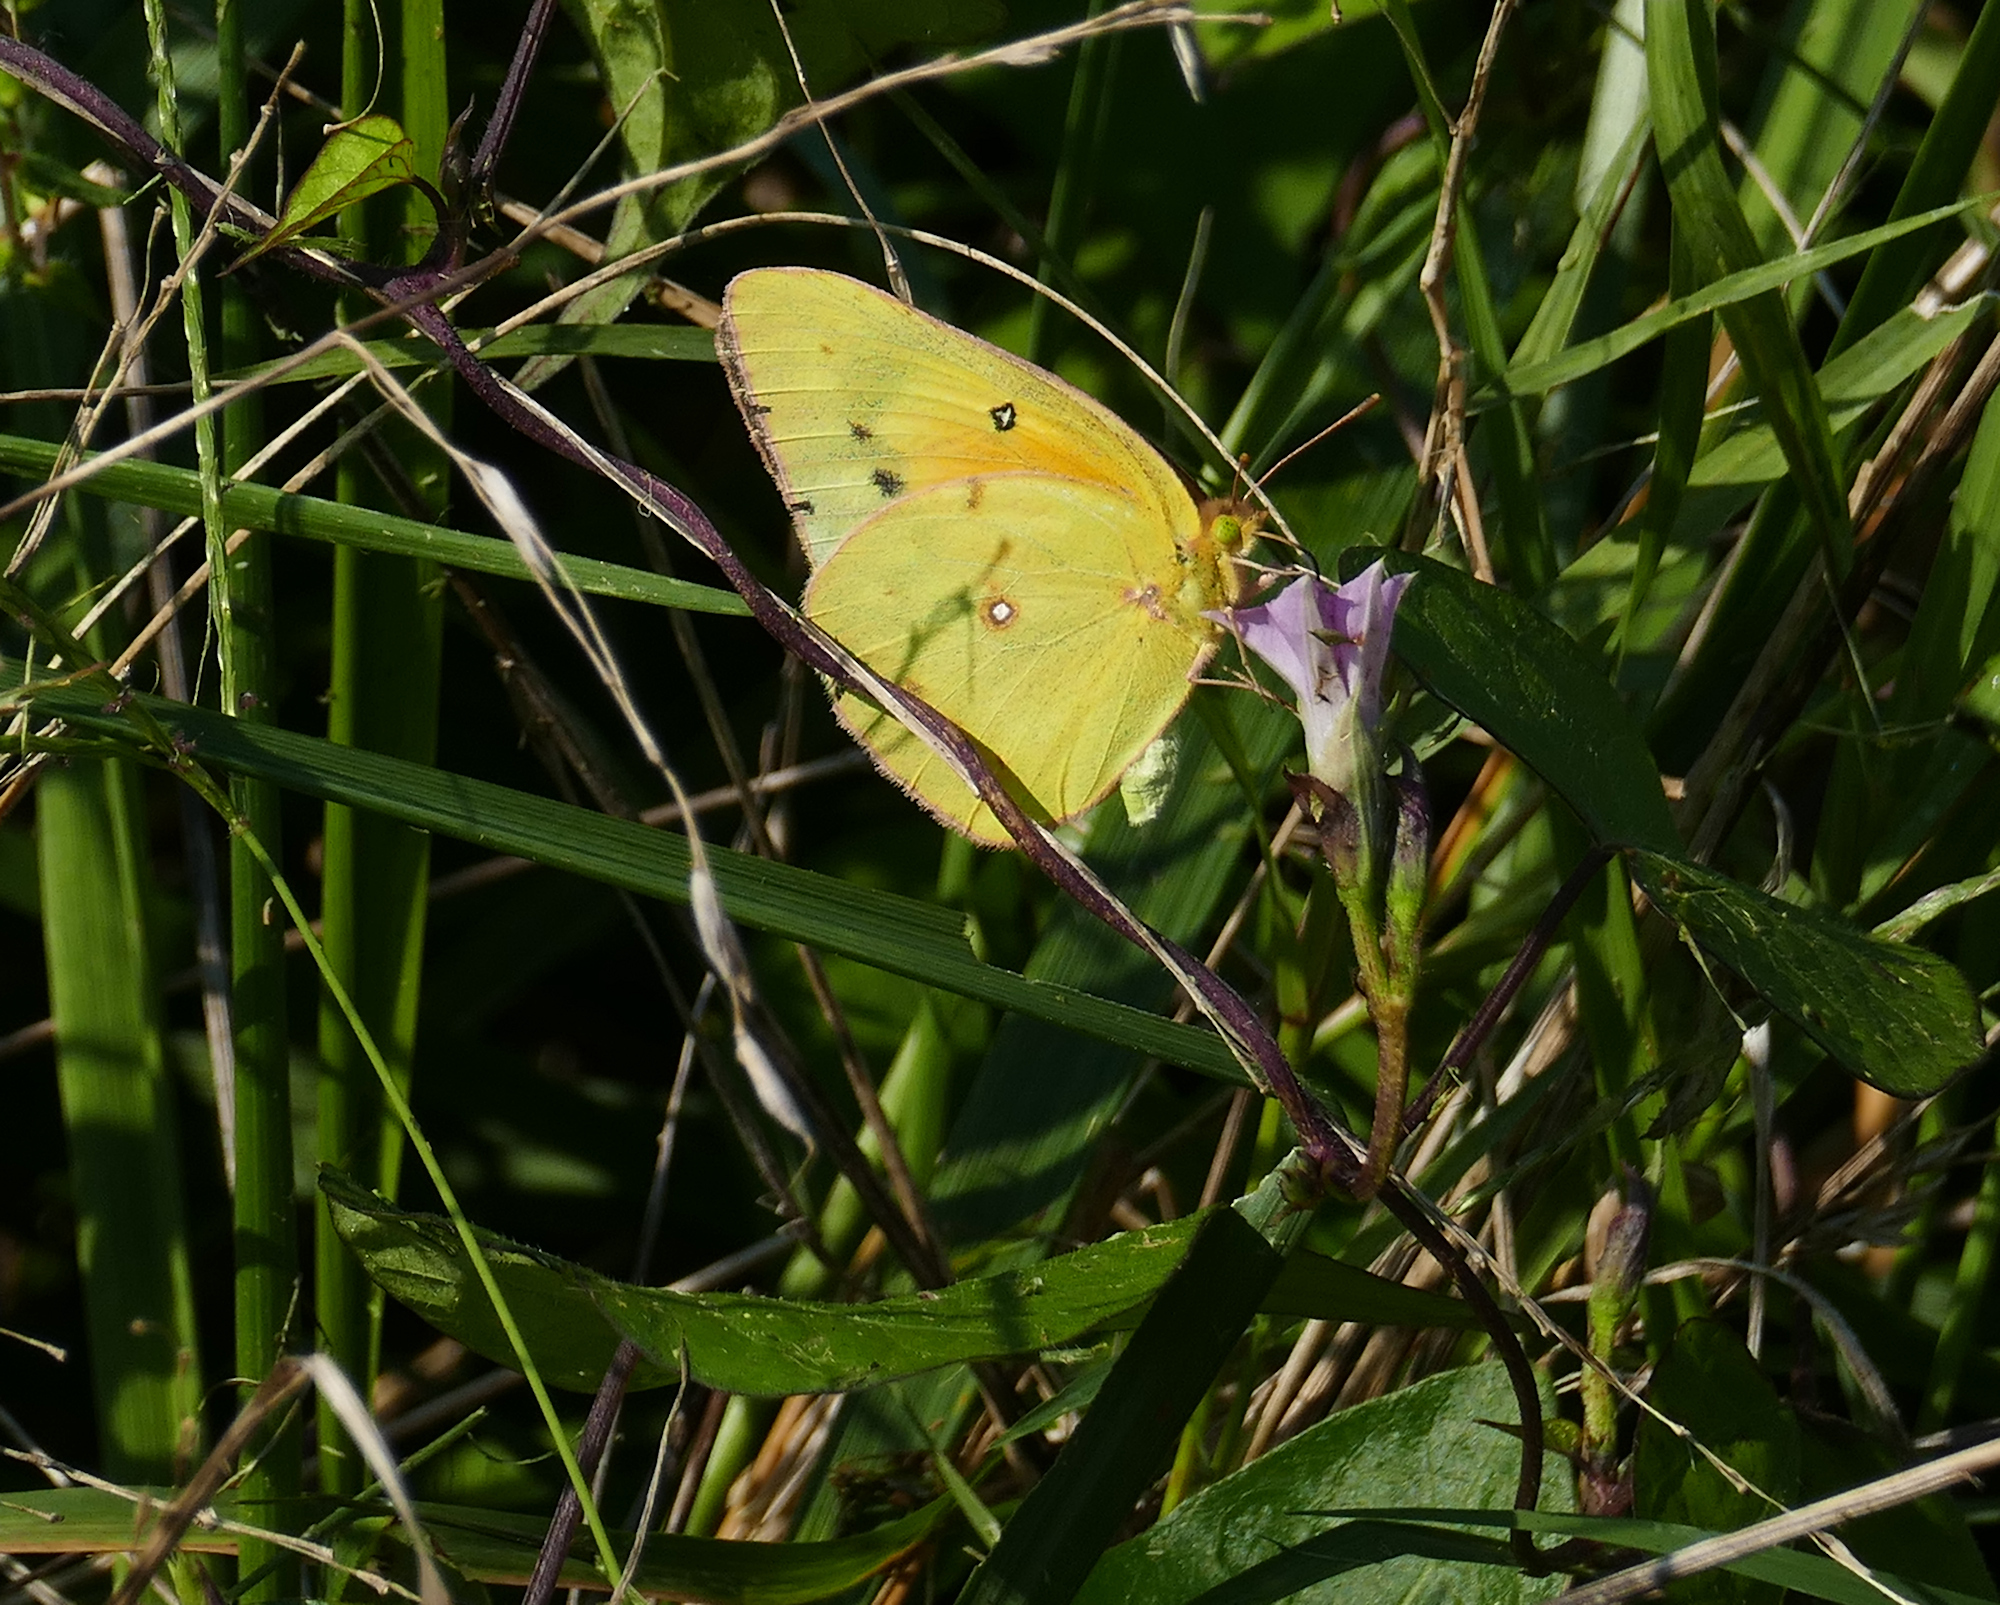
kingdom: Animalia
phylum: Arthropoda
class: Insecta
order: Lepidoptera
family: Pieridae
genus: Colias
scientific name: Colias eurytheme
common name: Alfalfa butterfly
